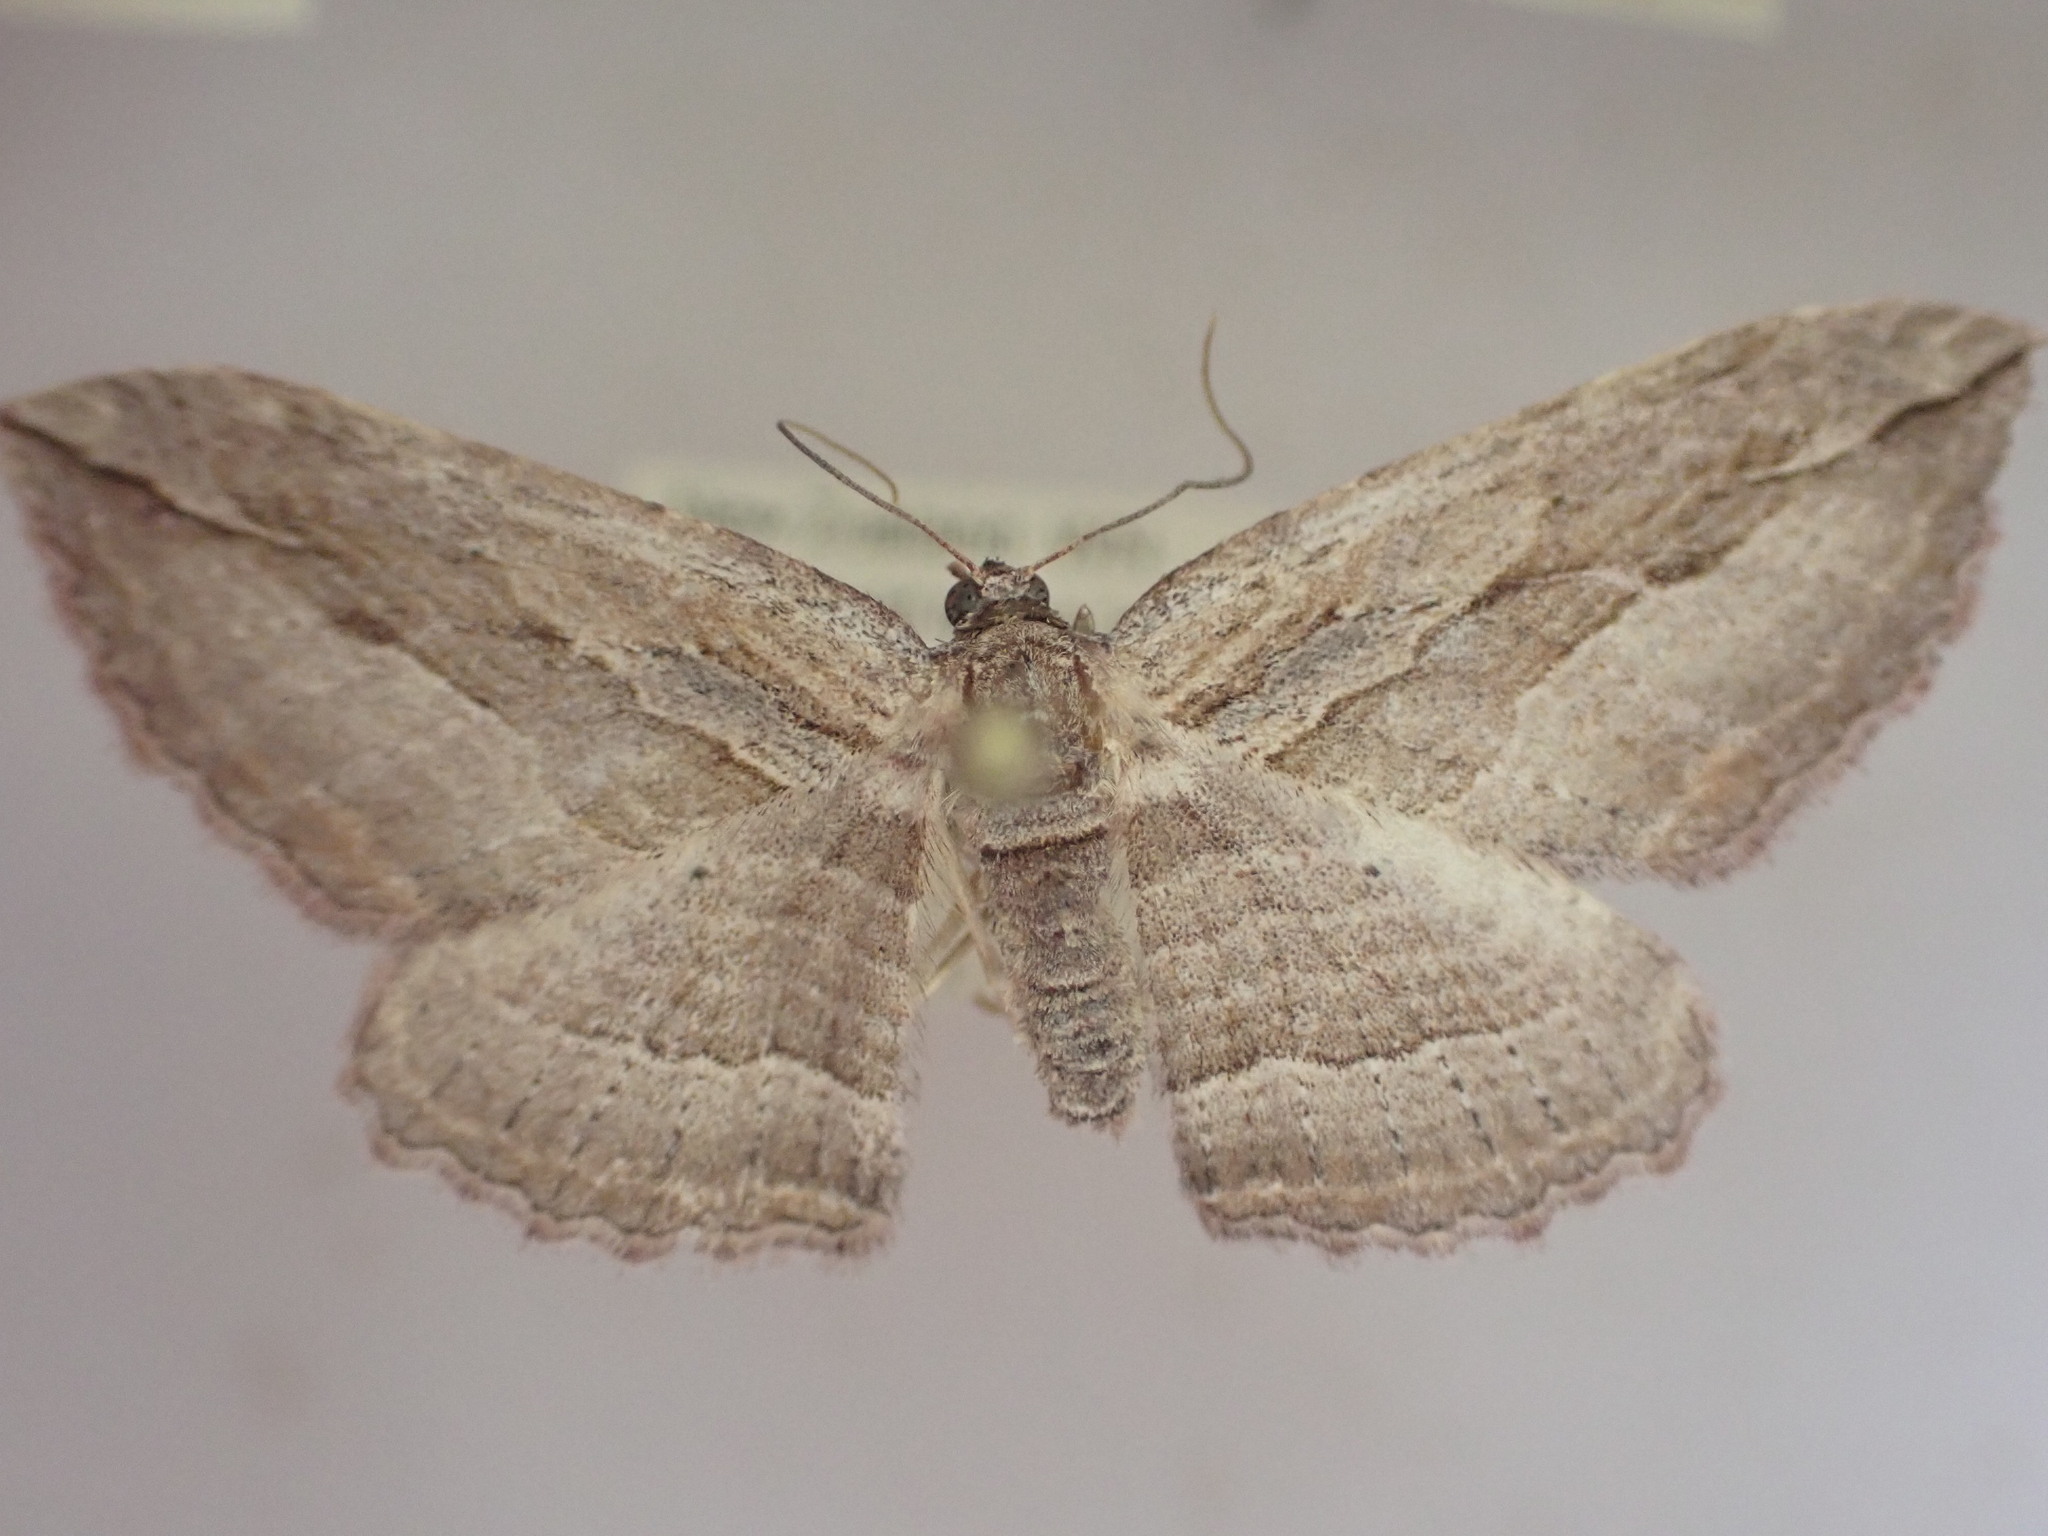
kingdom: Animalia
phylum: Arthropoda
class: Insecta
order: Lepidoptera
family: Geometridae
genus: Austrocidaria
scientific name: Austrocidaria gobiata
